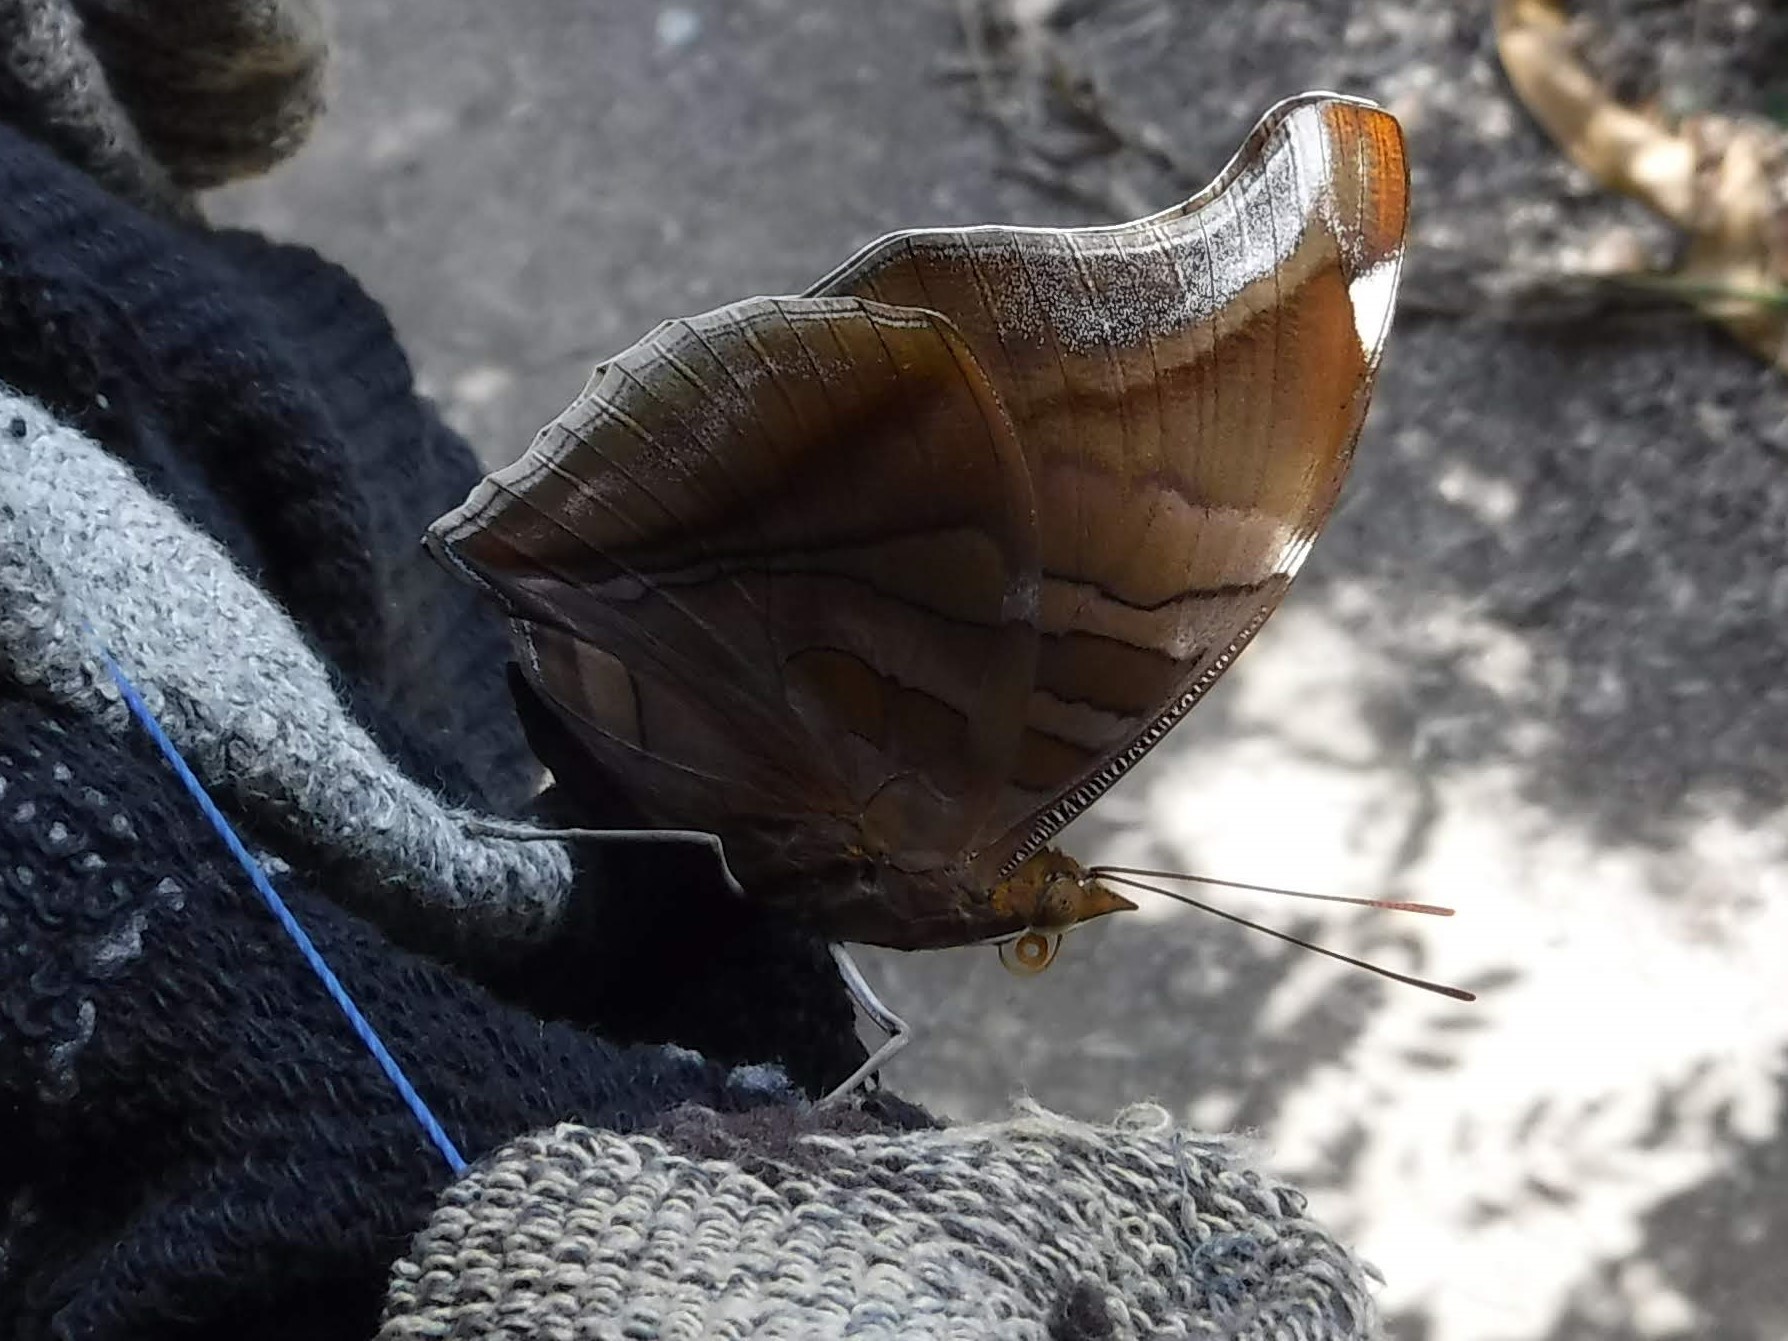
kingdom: Animalia
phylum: Arthropoda
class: Insecta
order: Lepidoptera
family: Nymphalidae
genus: Historis
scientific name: Historis odius
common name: Orion cecropian
